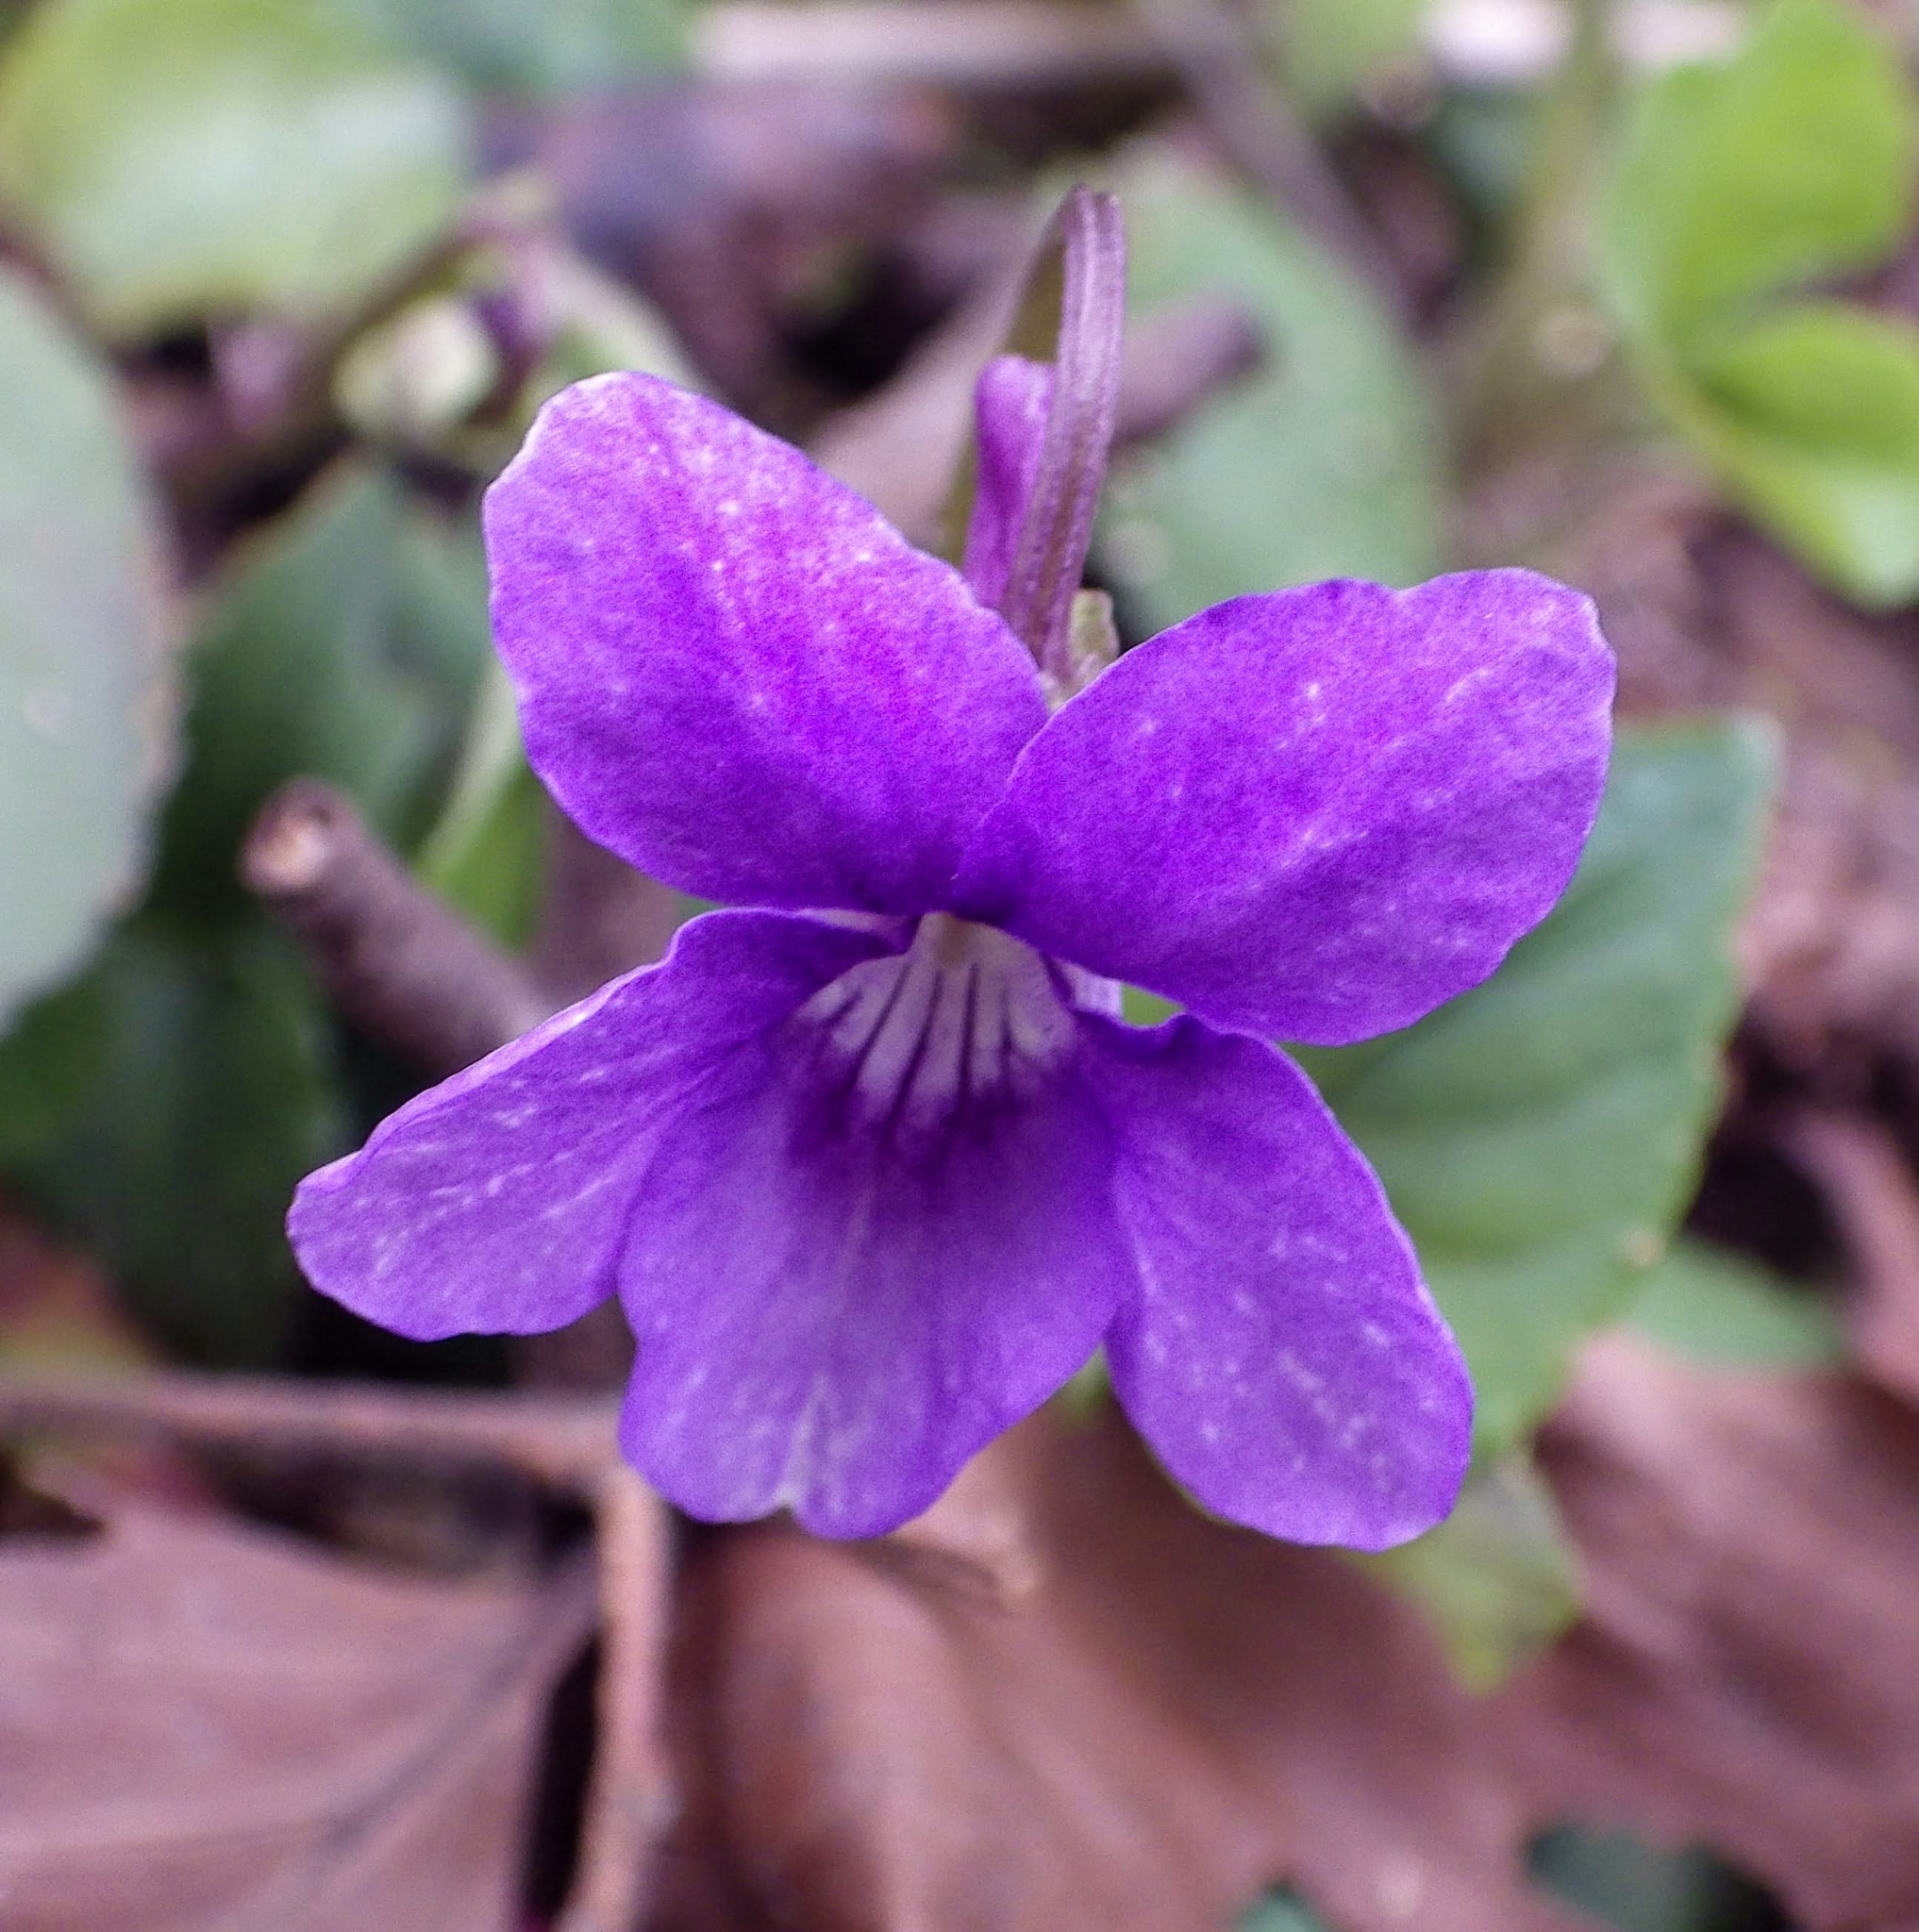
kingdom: Plantae
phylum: Tracheophyta
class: Magnoliopsida
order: Malpighiales
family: Violaceae
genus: Viola
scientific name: Viola reichenbachiana
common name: Early dog-violet
